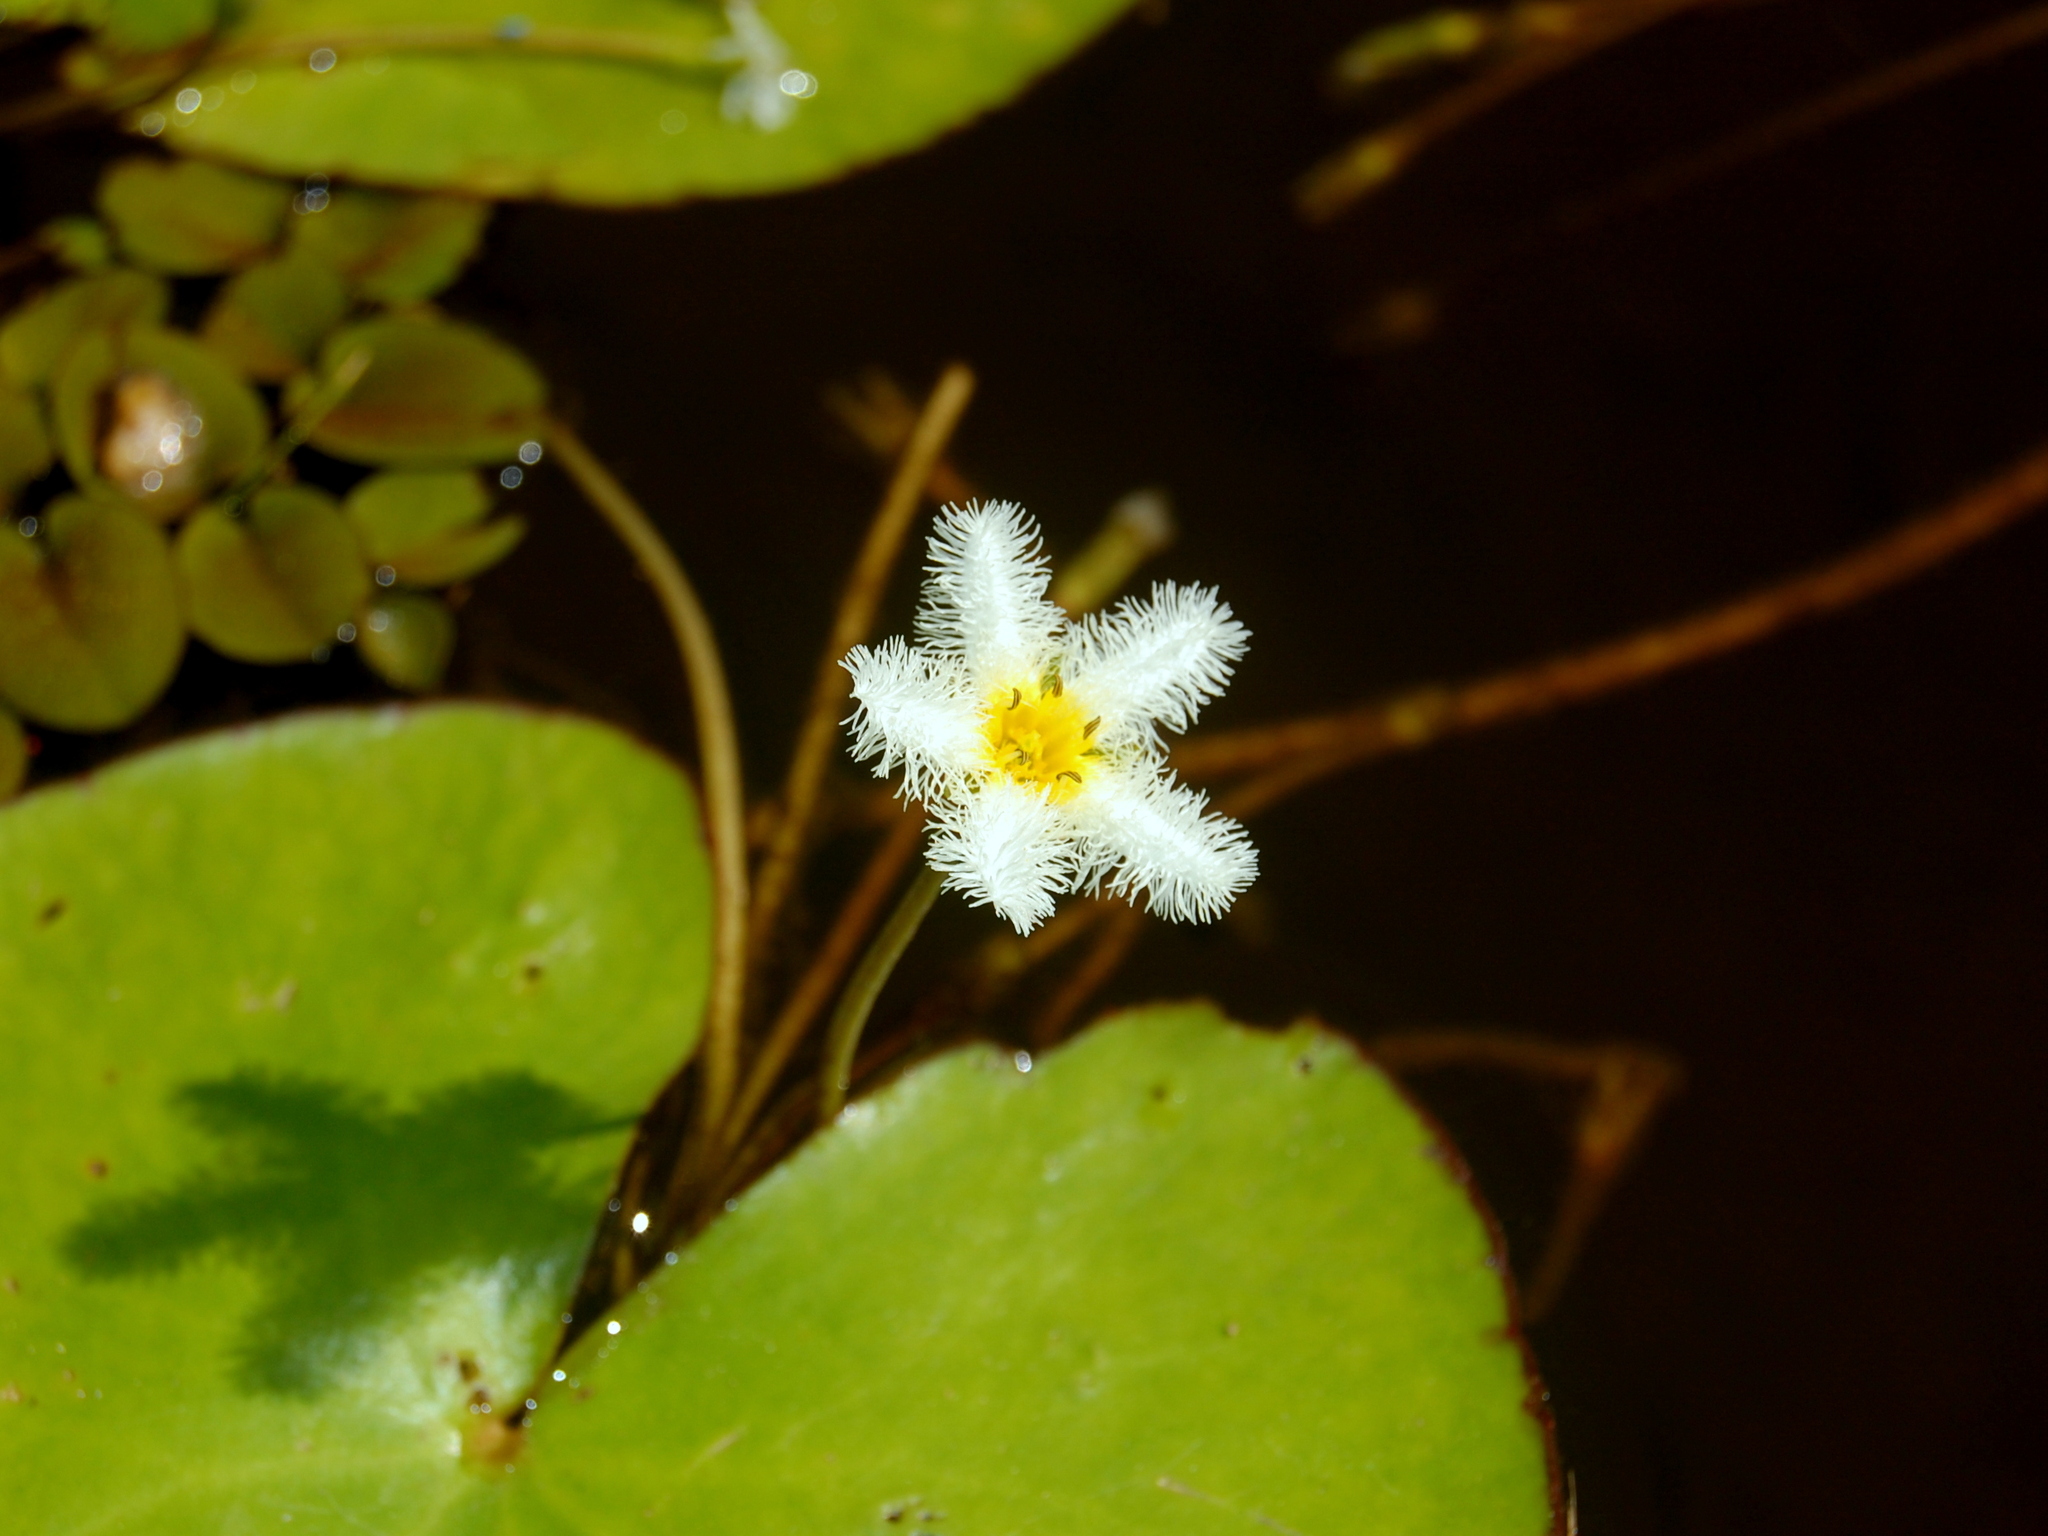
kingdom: Plantae
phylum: Tracheophyta
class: Magnoliopsida
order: Asterales
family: Menyanthaceae
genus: Nymphoides
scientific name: Nymphoides humboldtiana
